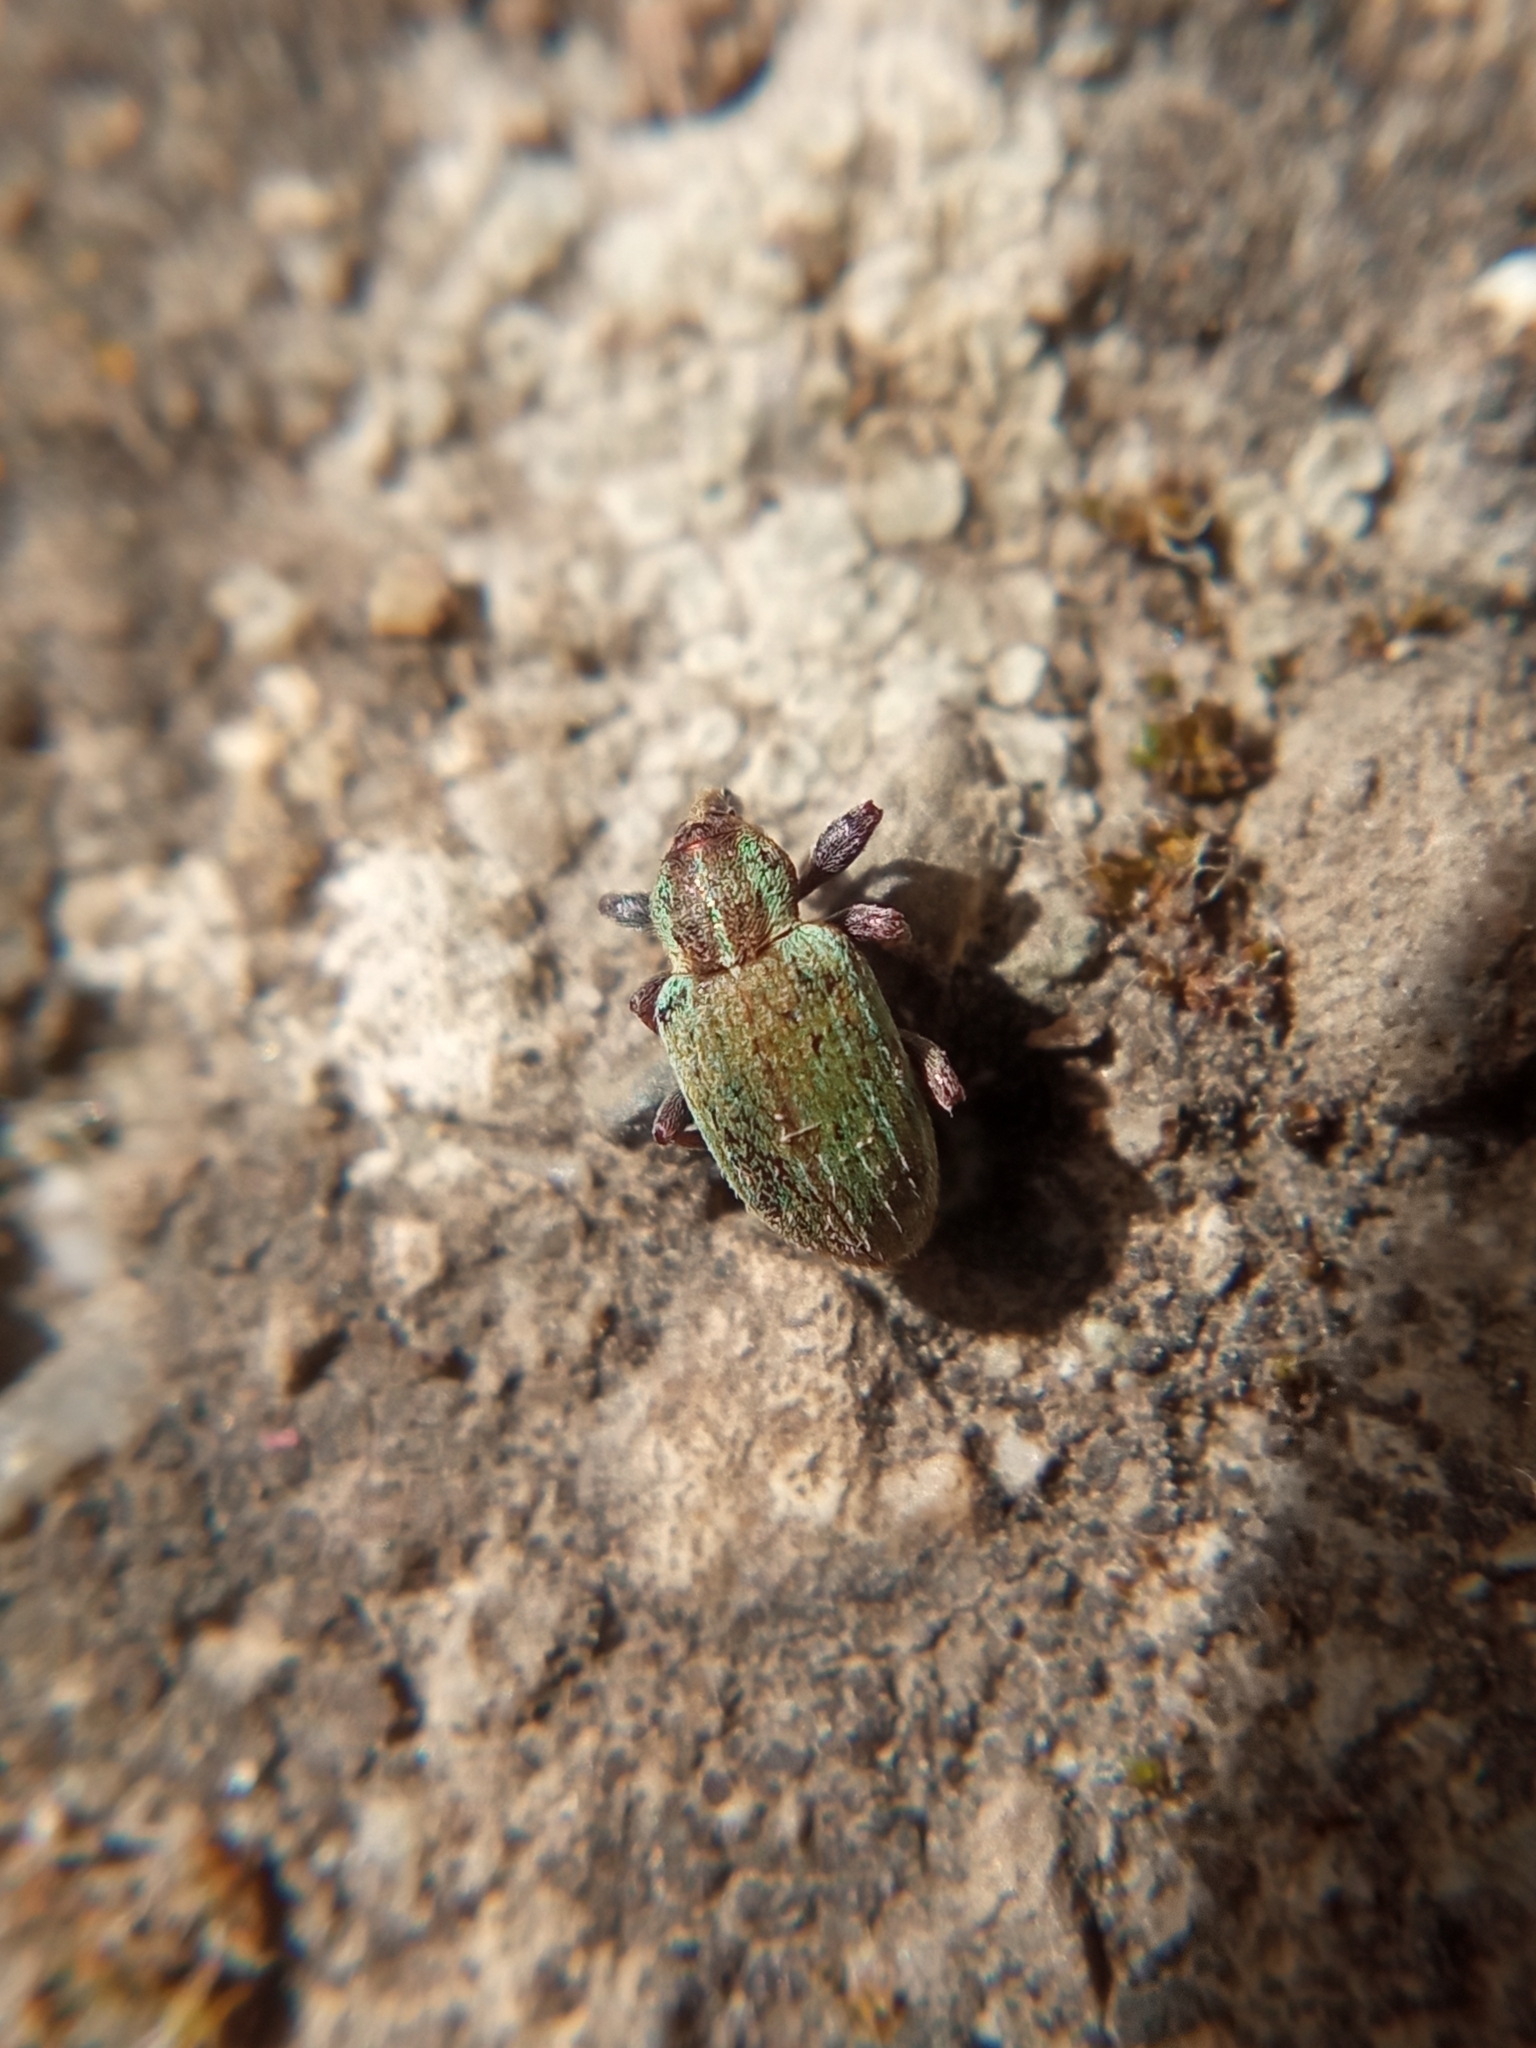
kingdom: Animalia
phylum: Arthropoda
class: Insecta
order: Coleoptera
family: Curculionidae
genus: Hypera
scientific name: Hypera nigrirostris
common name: Black-beaked green weevil
